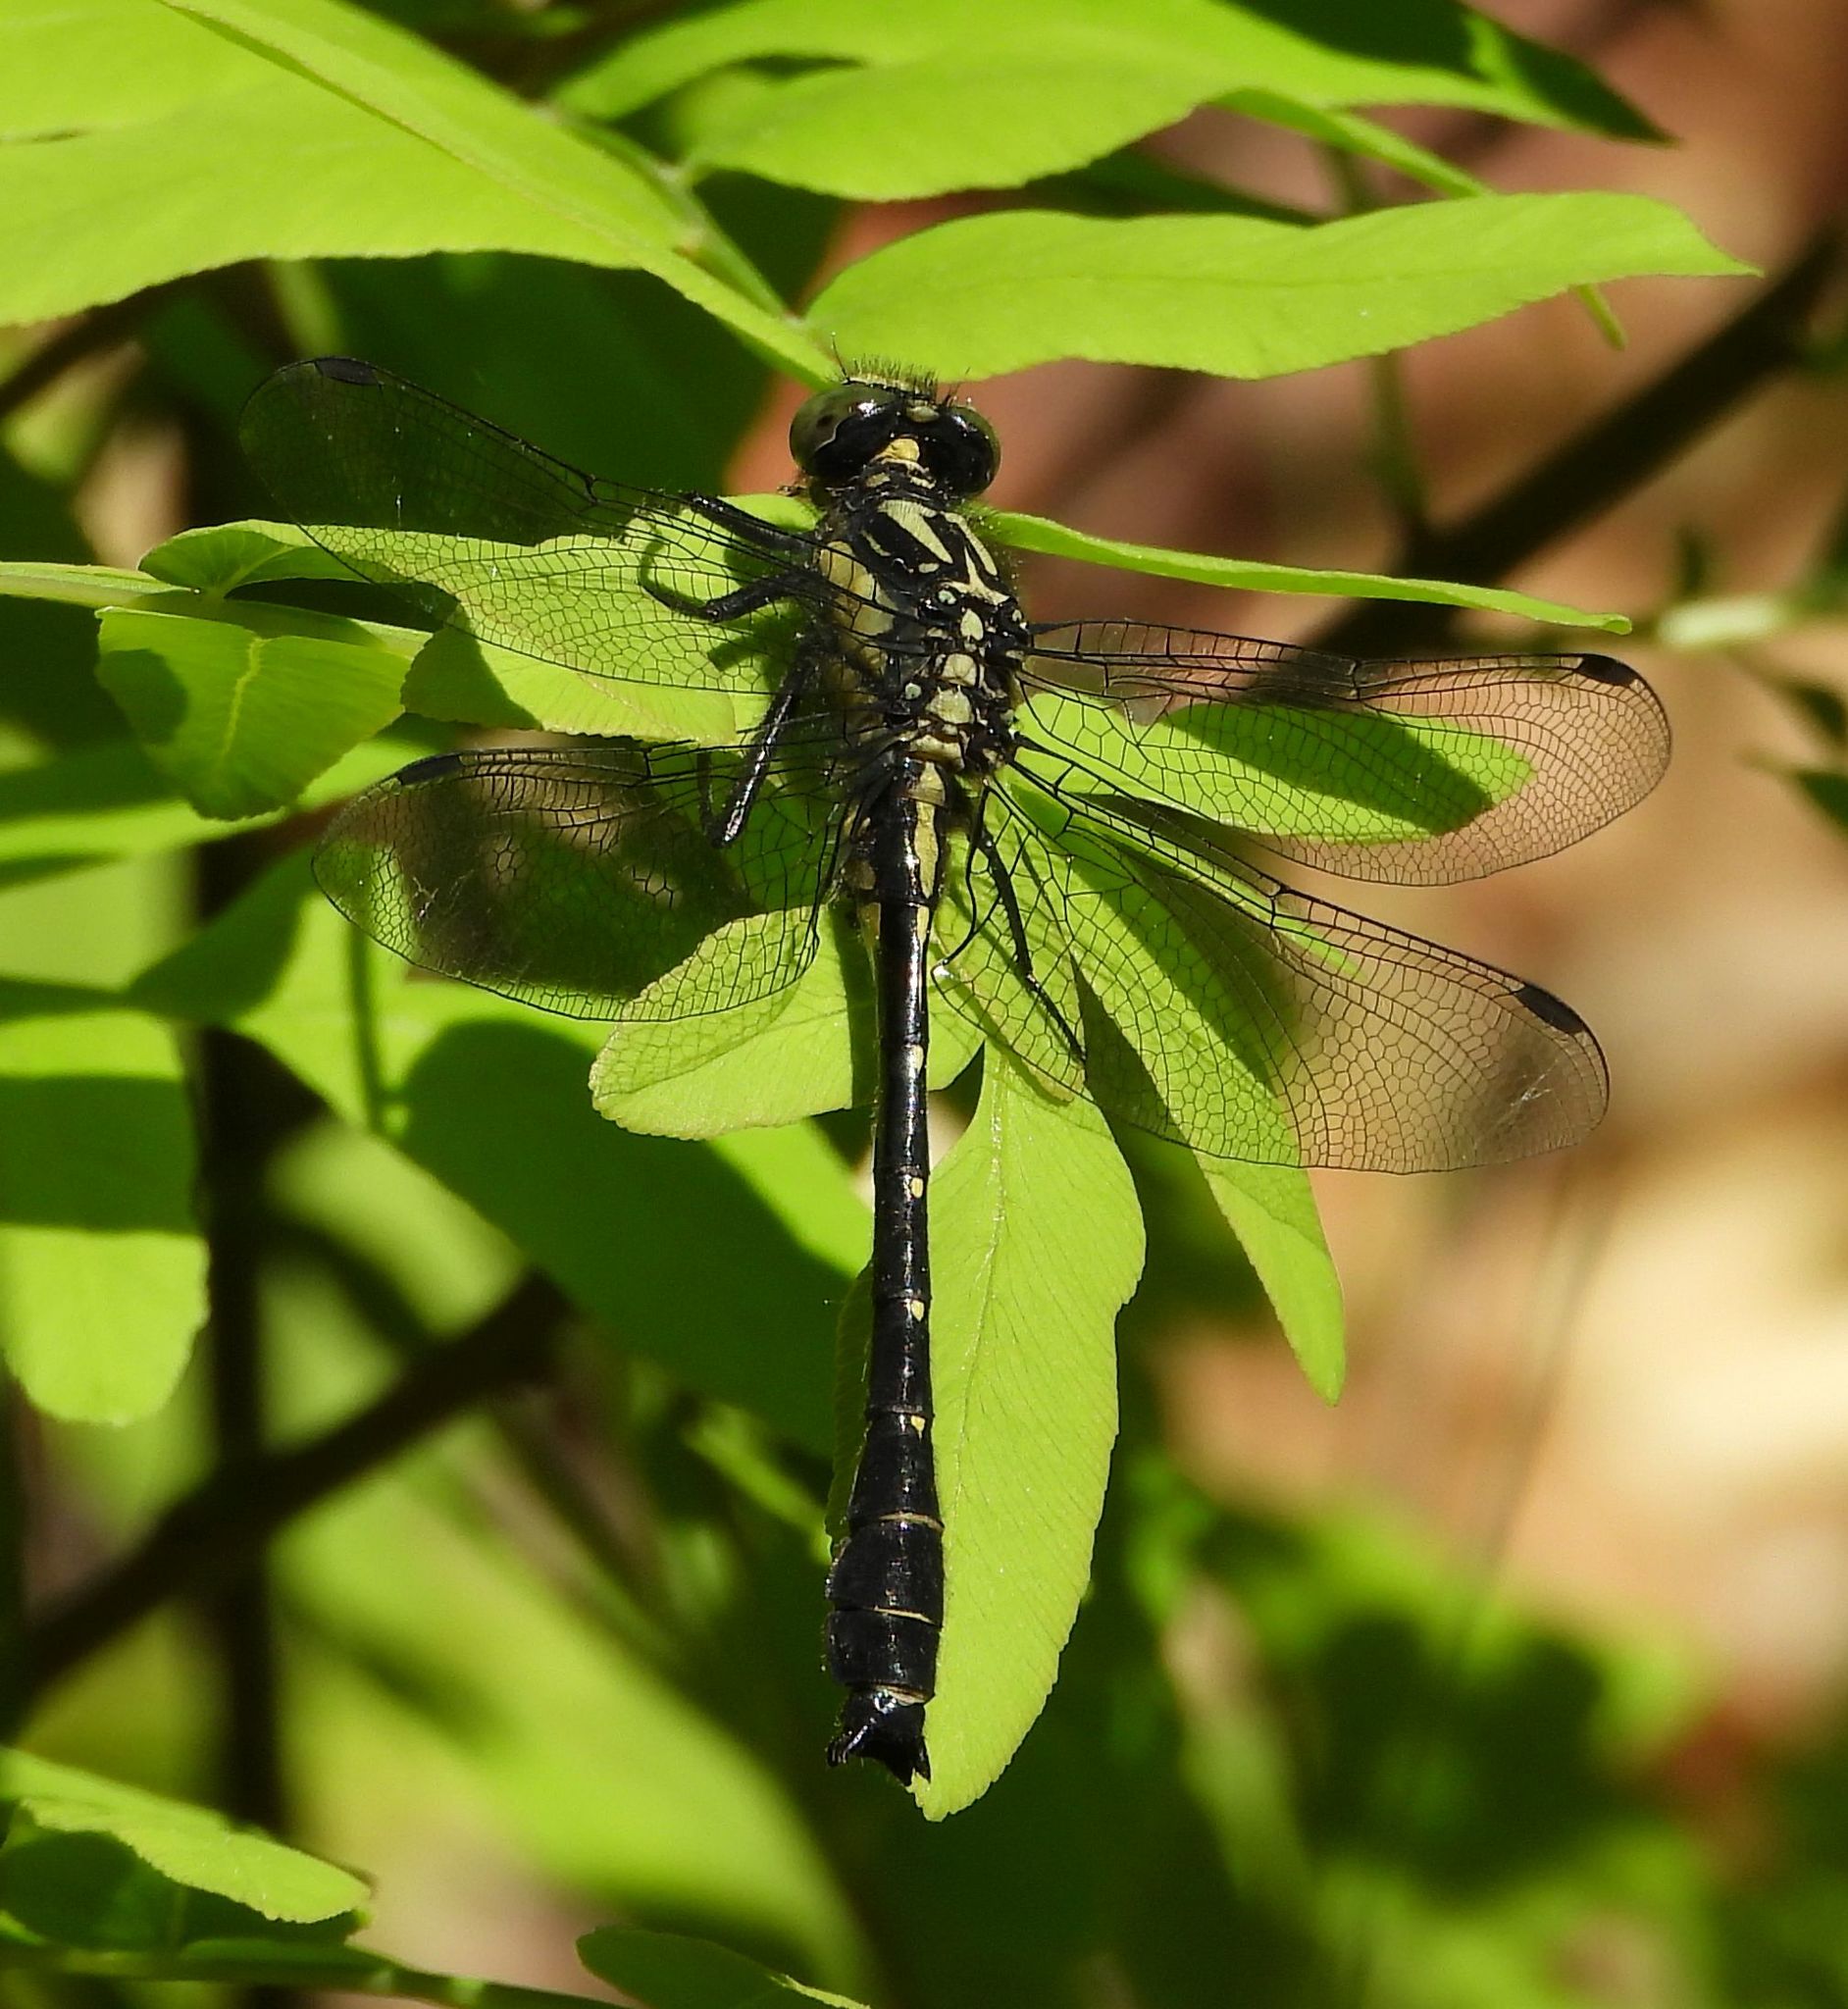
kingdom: Animalia
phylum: Arthropoda
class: Insecta
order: Odonata
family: Gomphidae
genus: Hylogomphus
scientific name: Hylogomphus adelphus
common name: Mustached clubtail
